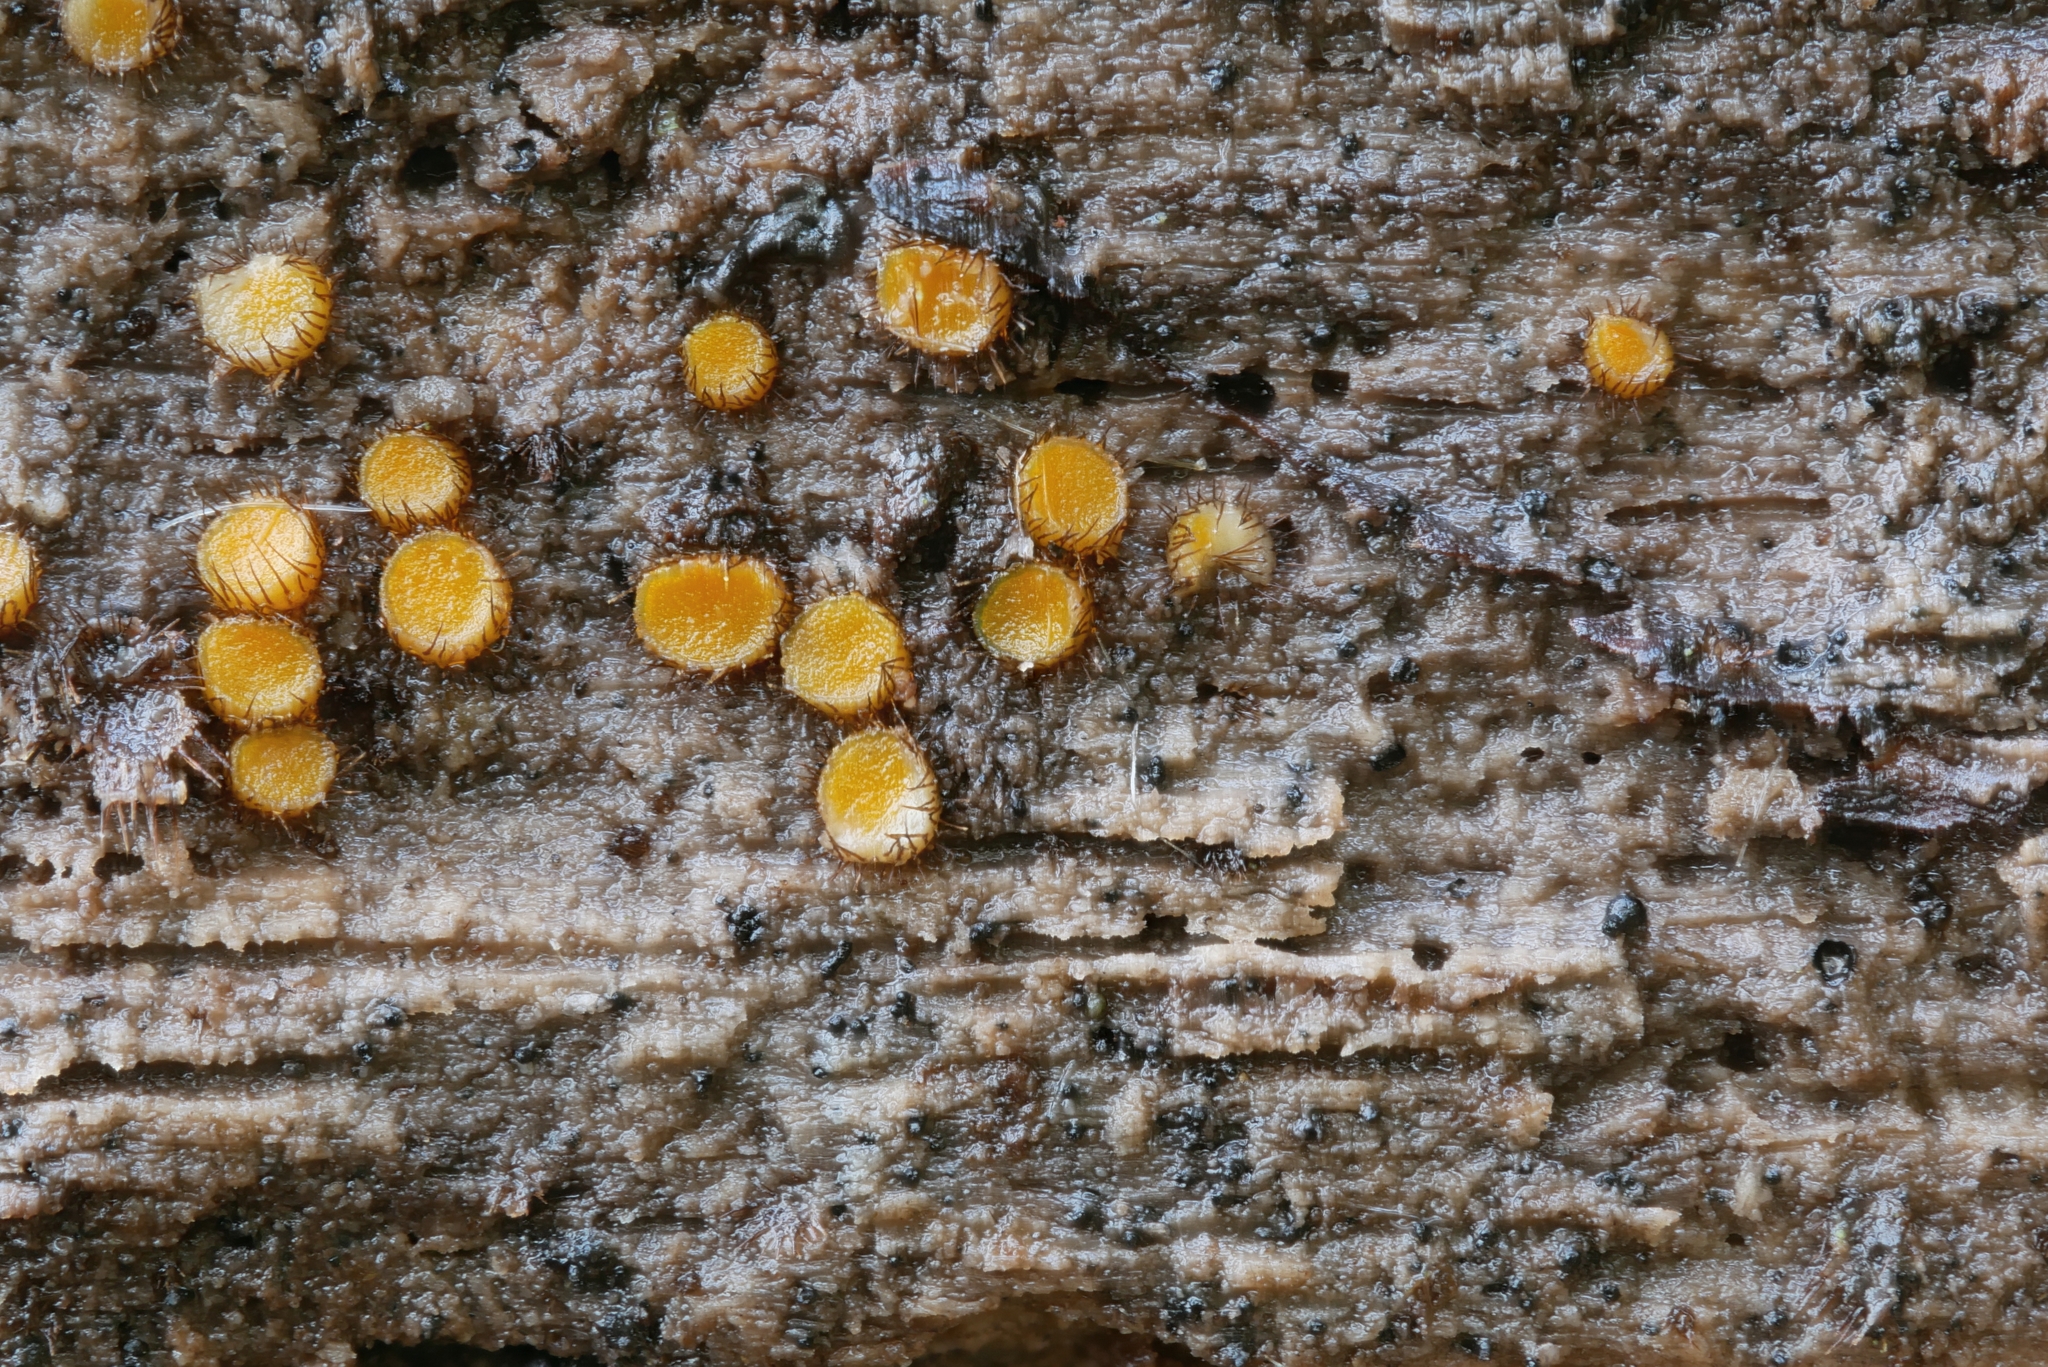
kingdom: Fungi
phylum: Ascomycota
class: Pezizomycetes
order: Pezizales
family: Pyronemataceae
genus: Scutellinia
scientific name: Scutellinia setosa
